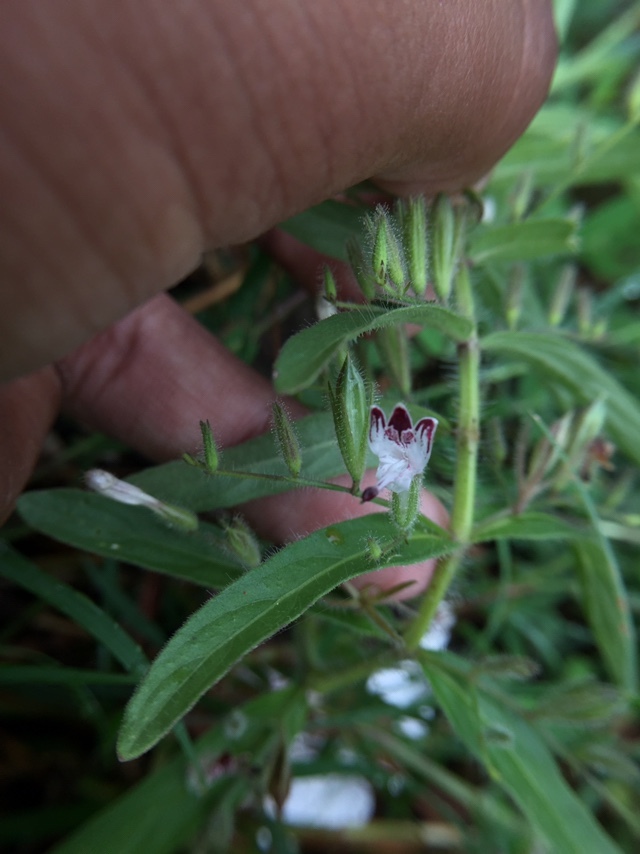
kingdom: Plantae
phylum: Tracheophyta
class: Magnoliopsida
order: Lamiales
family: Acanthaceae
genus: Andrographis
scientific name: Andrographis echioides
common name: False waterwillow
